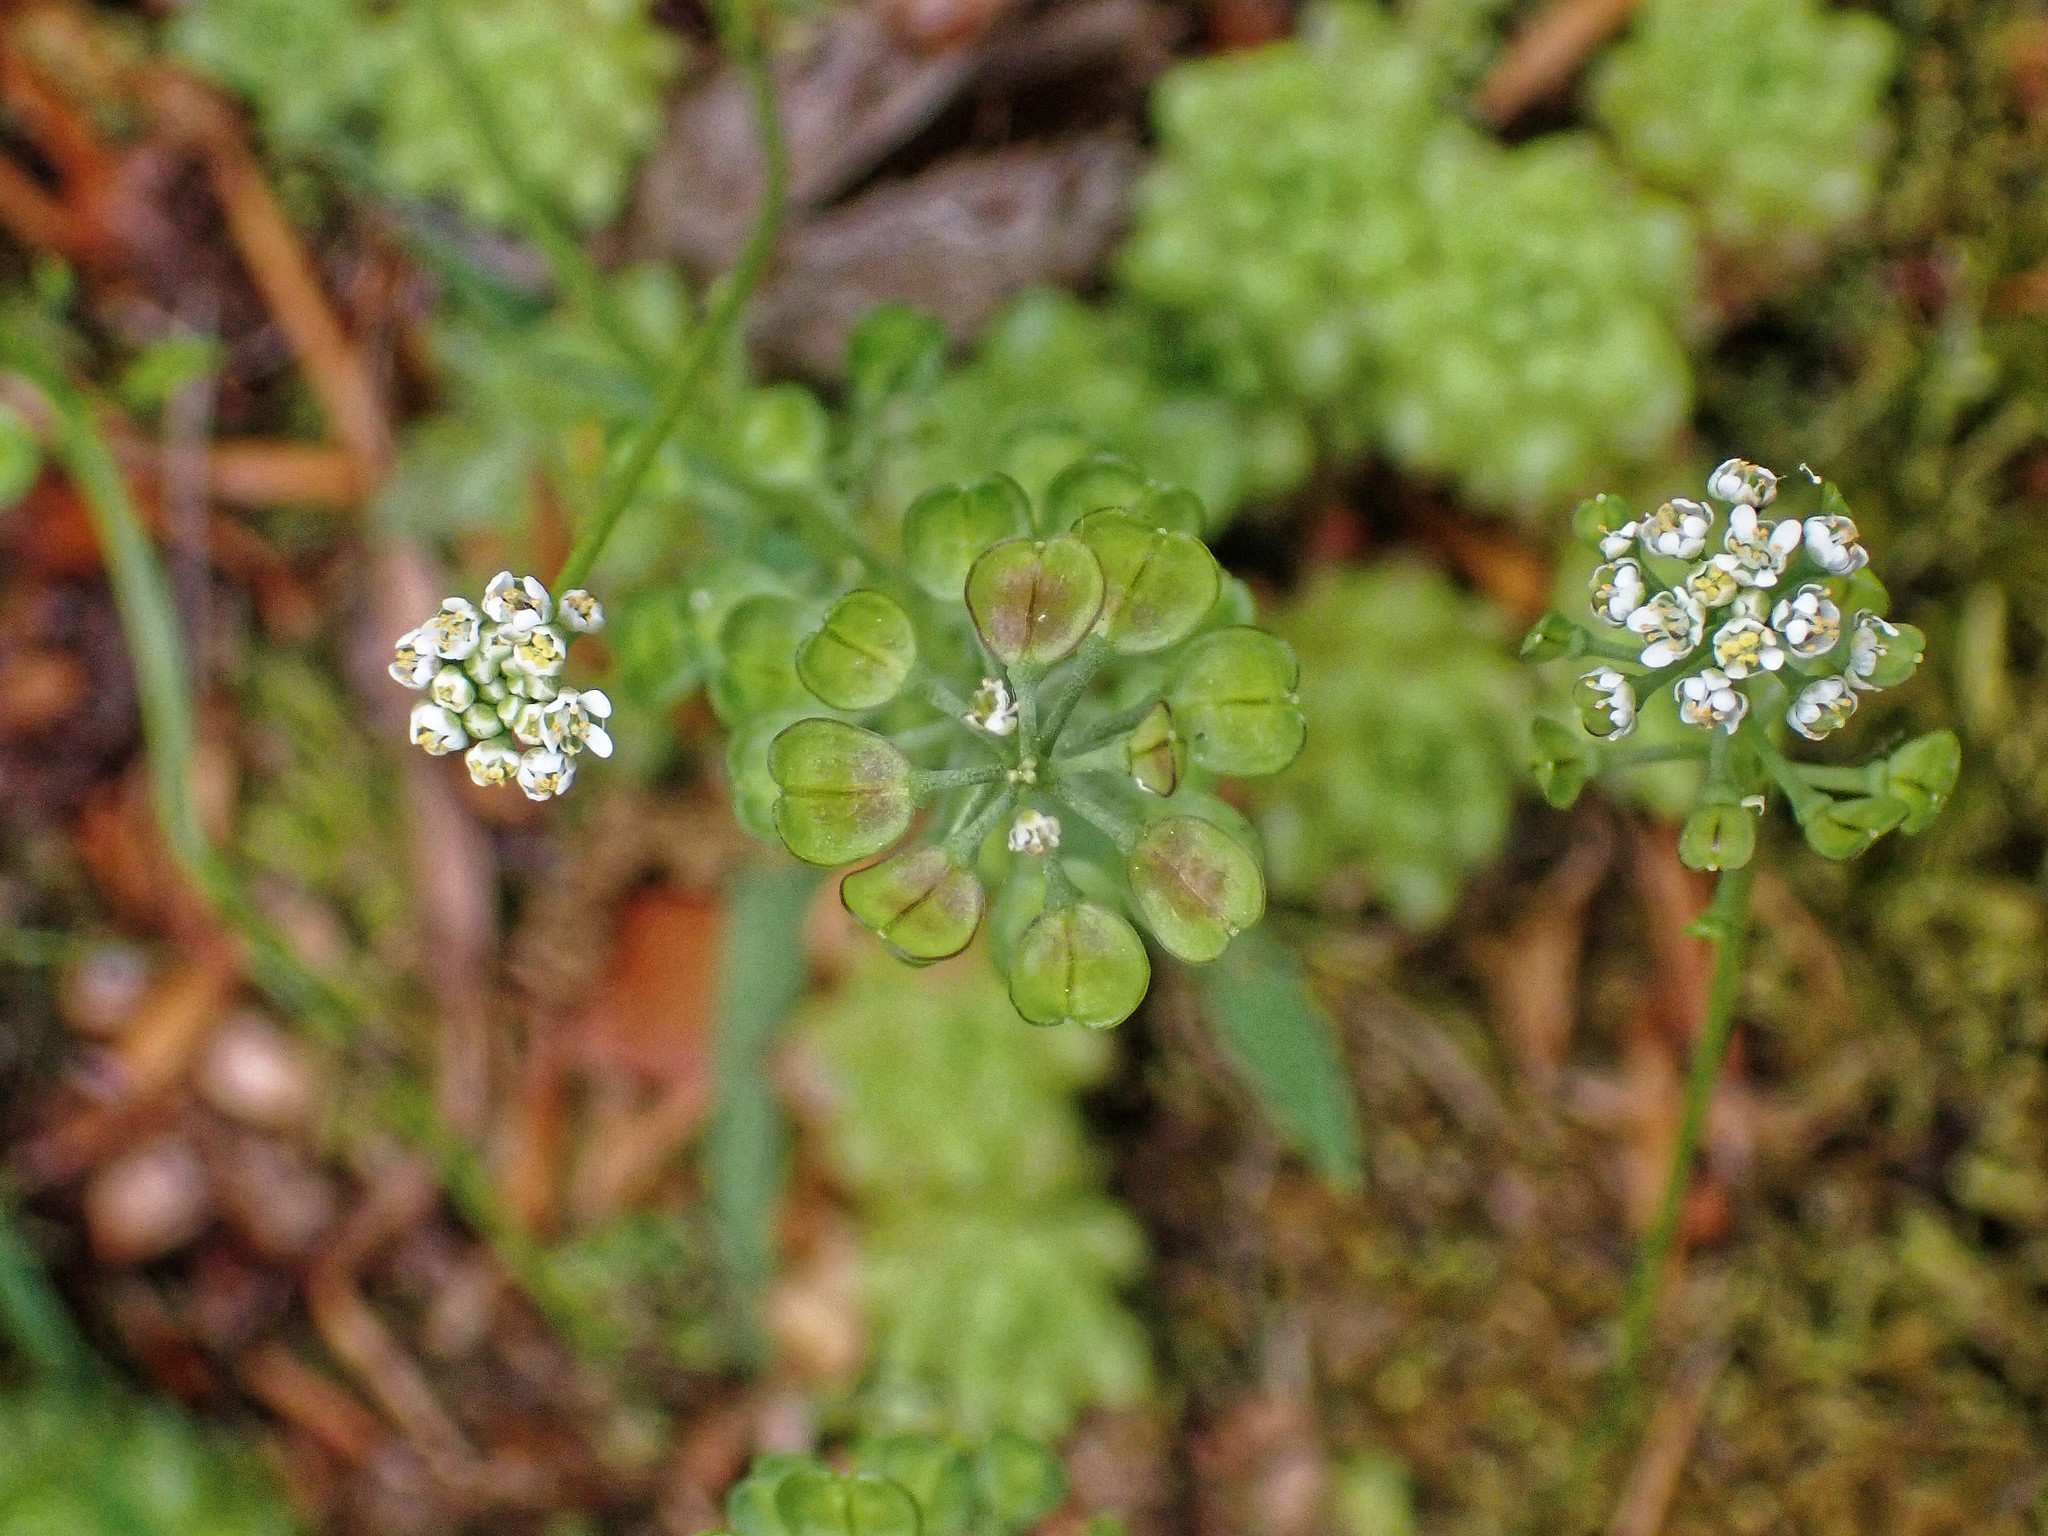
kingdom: Plantae
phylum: Tracheophyta
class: Magnoliopsida
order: Brassicales
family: Brassicaceae
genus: Teesdalia
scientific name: Teesdalia nudicaulis
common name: Shepherd's cress
